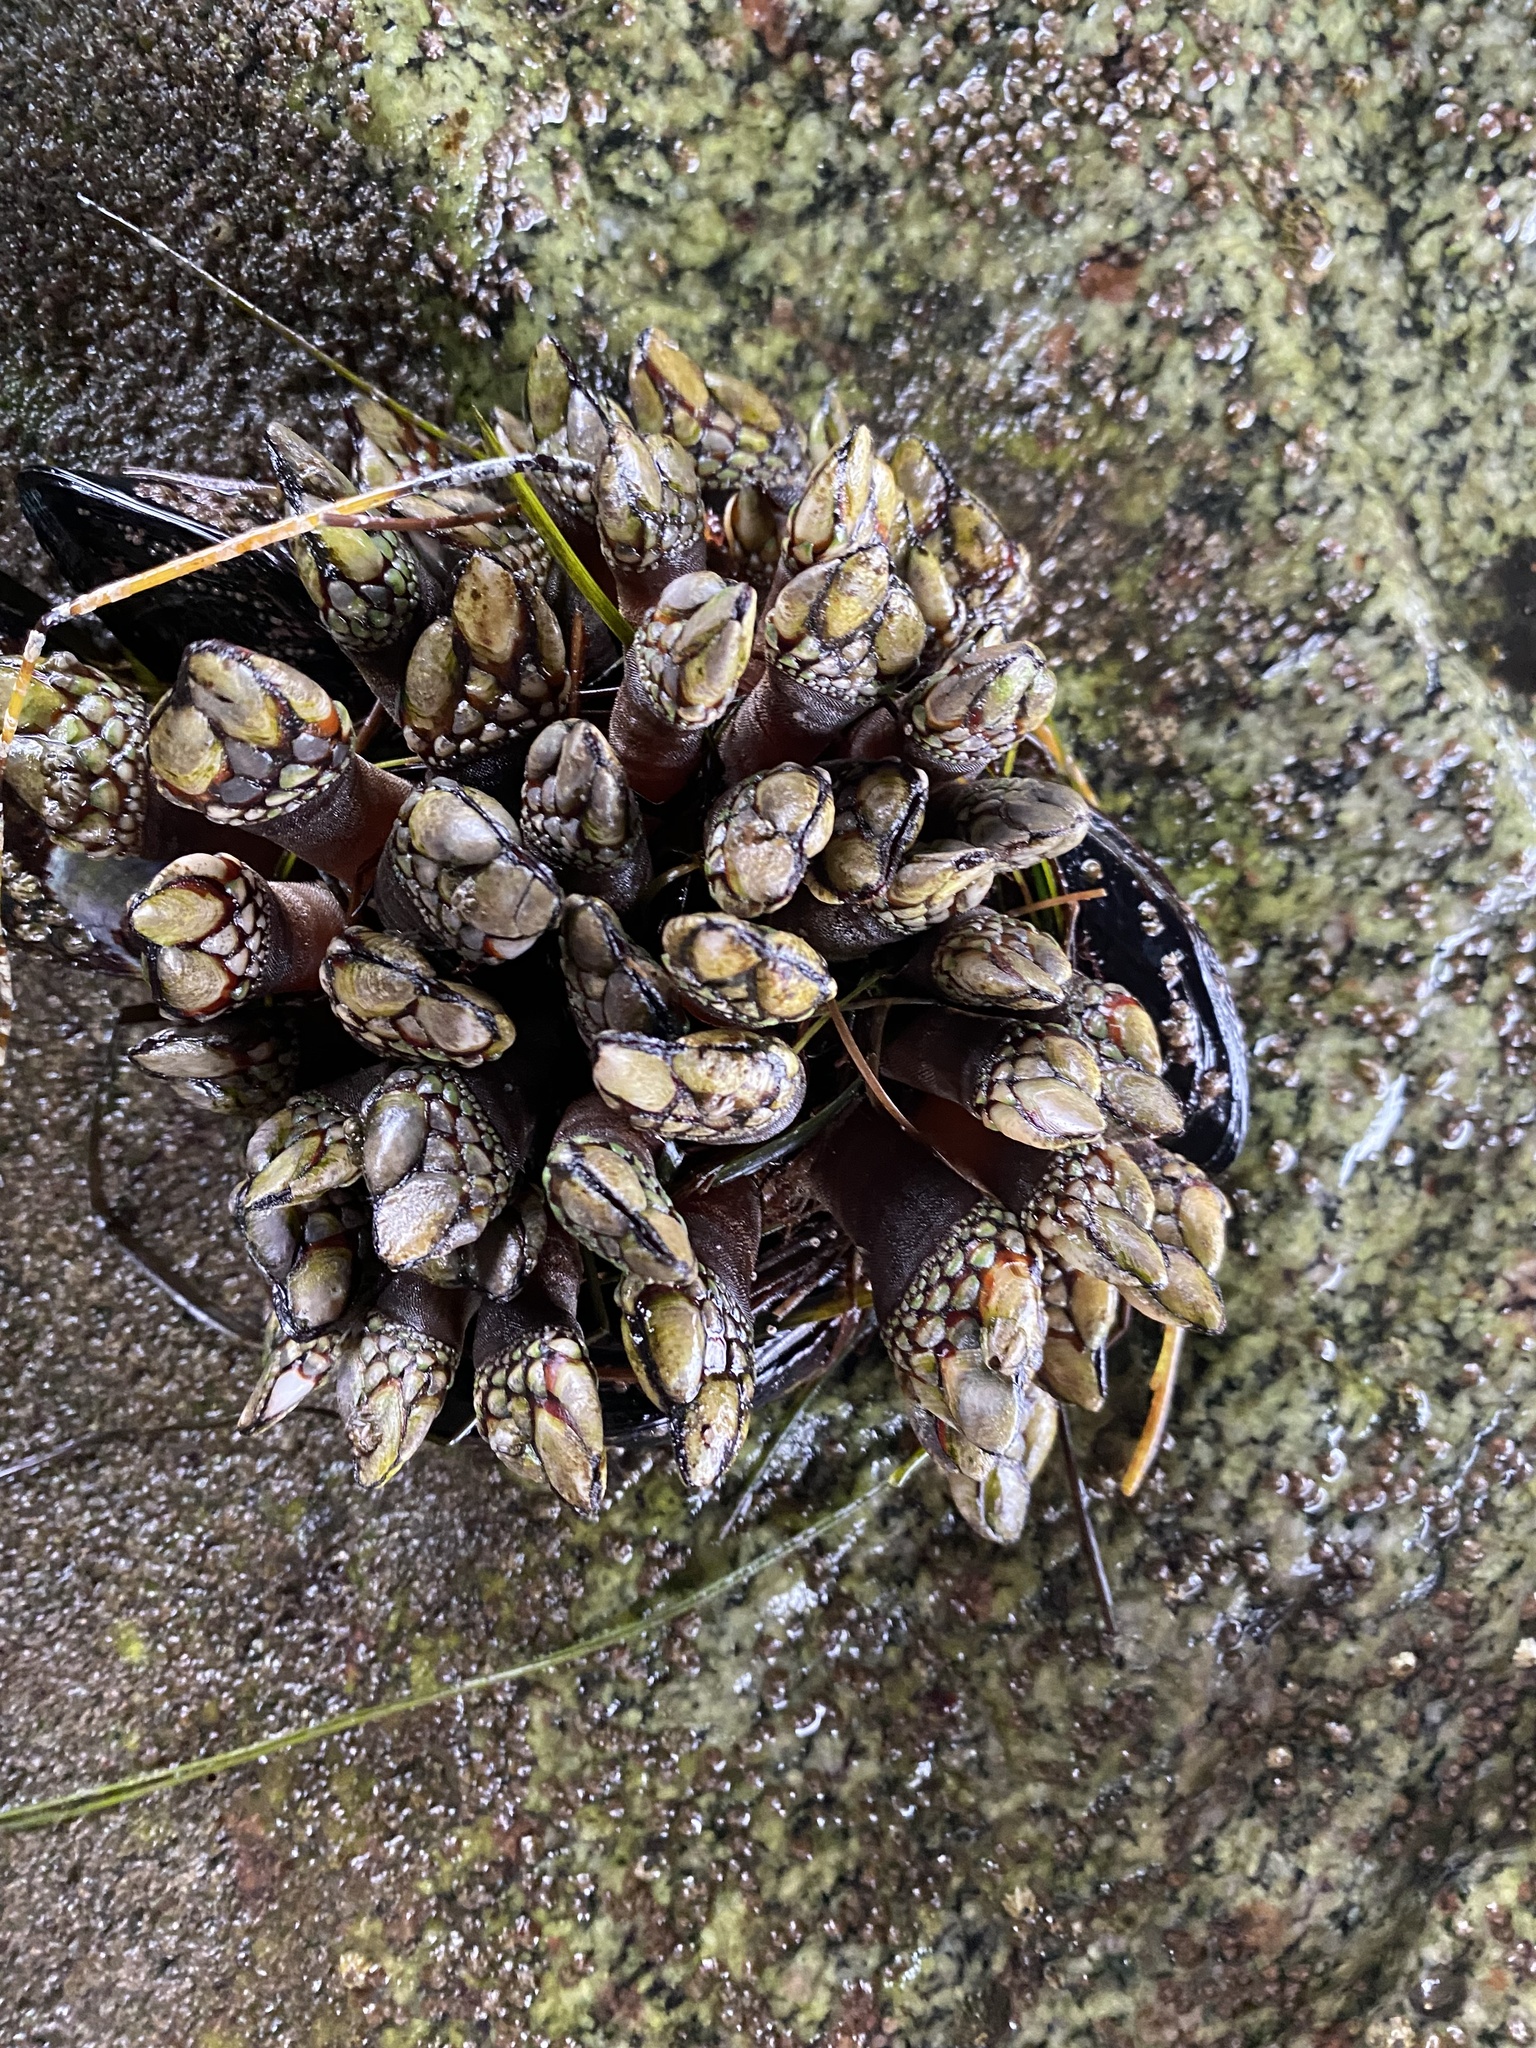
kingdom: Animalia
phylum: Arthropoda
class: Maxillopoda
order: Pedunculata
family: Pollicipedidae
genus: Pollicipes
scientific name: Pollicipes polymerus
